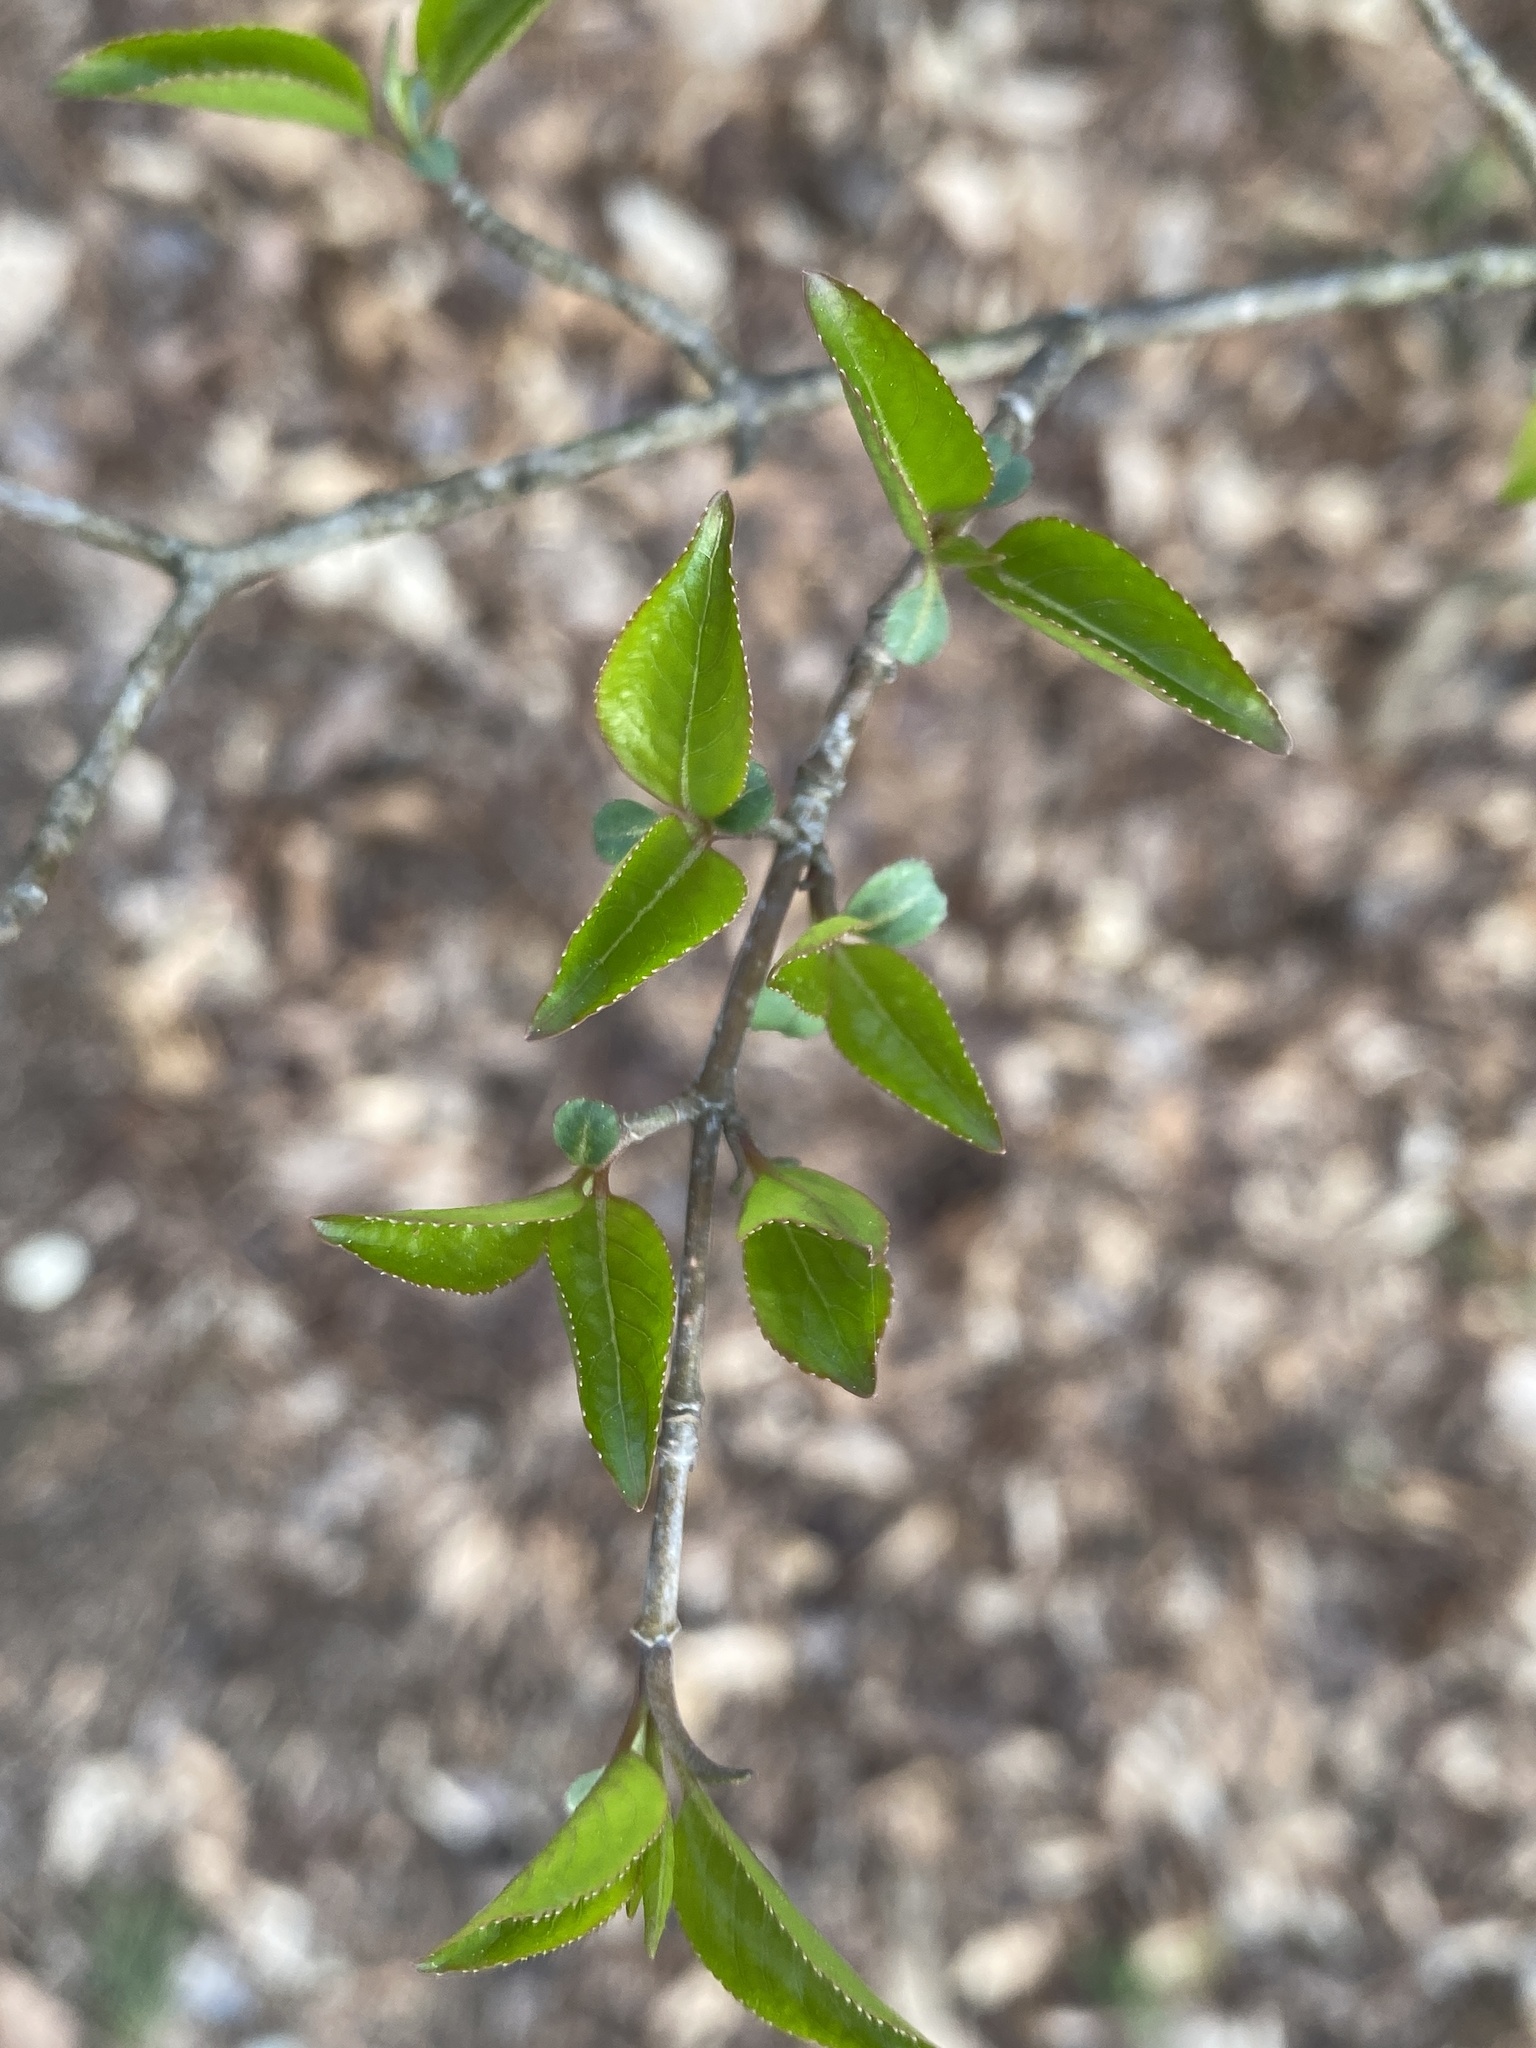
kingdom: Plantae
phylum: Tracheophyta
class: Magnoliopsida
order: Dipsacales
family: Viburnaceae
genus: Viburnum
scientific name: Viburnum prunifolium
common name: Black haw
